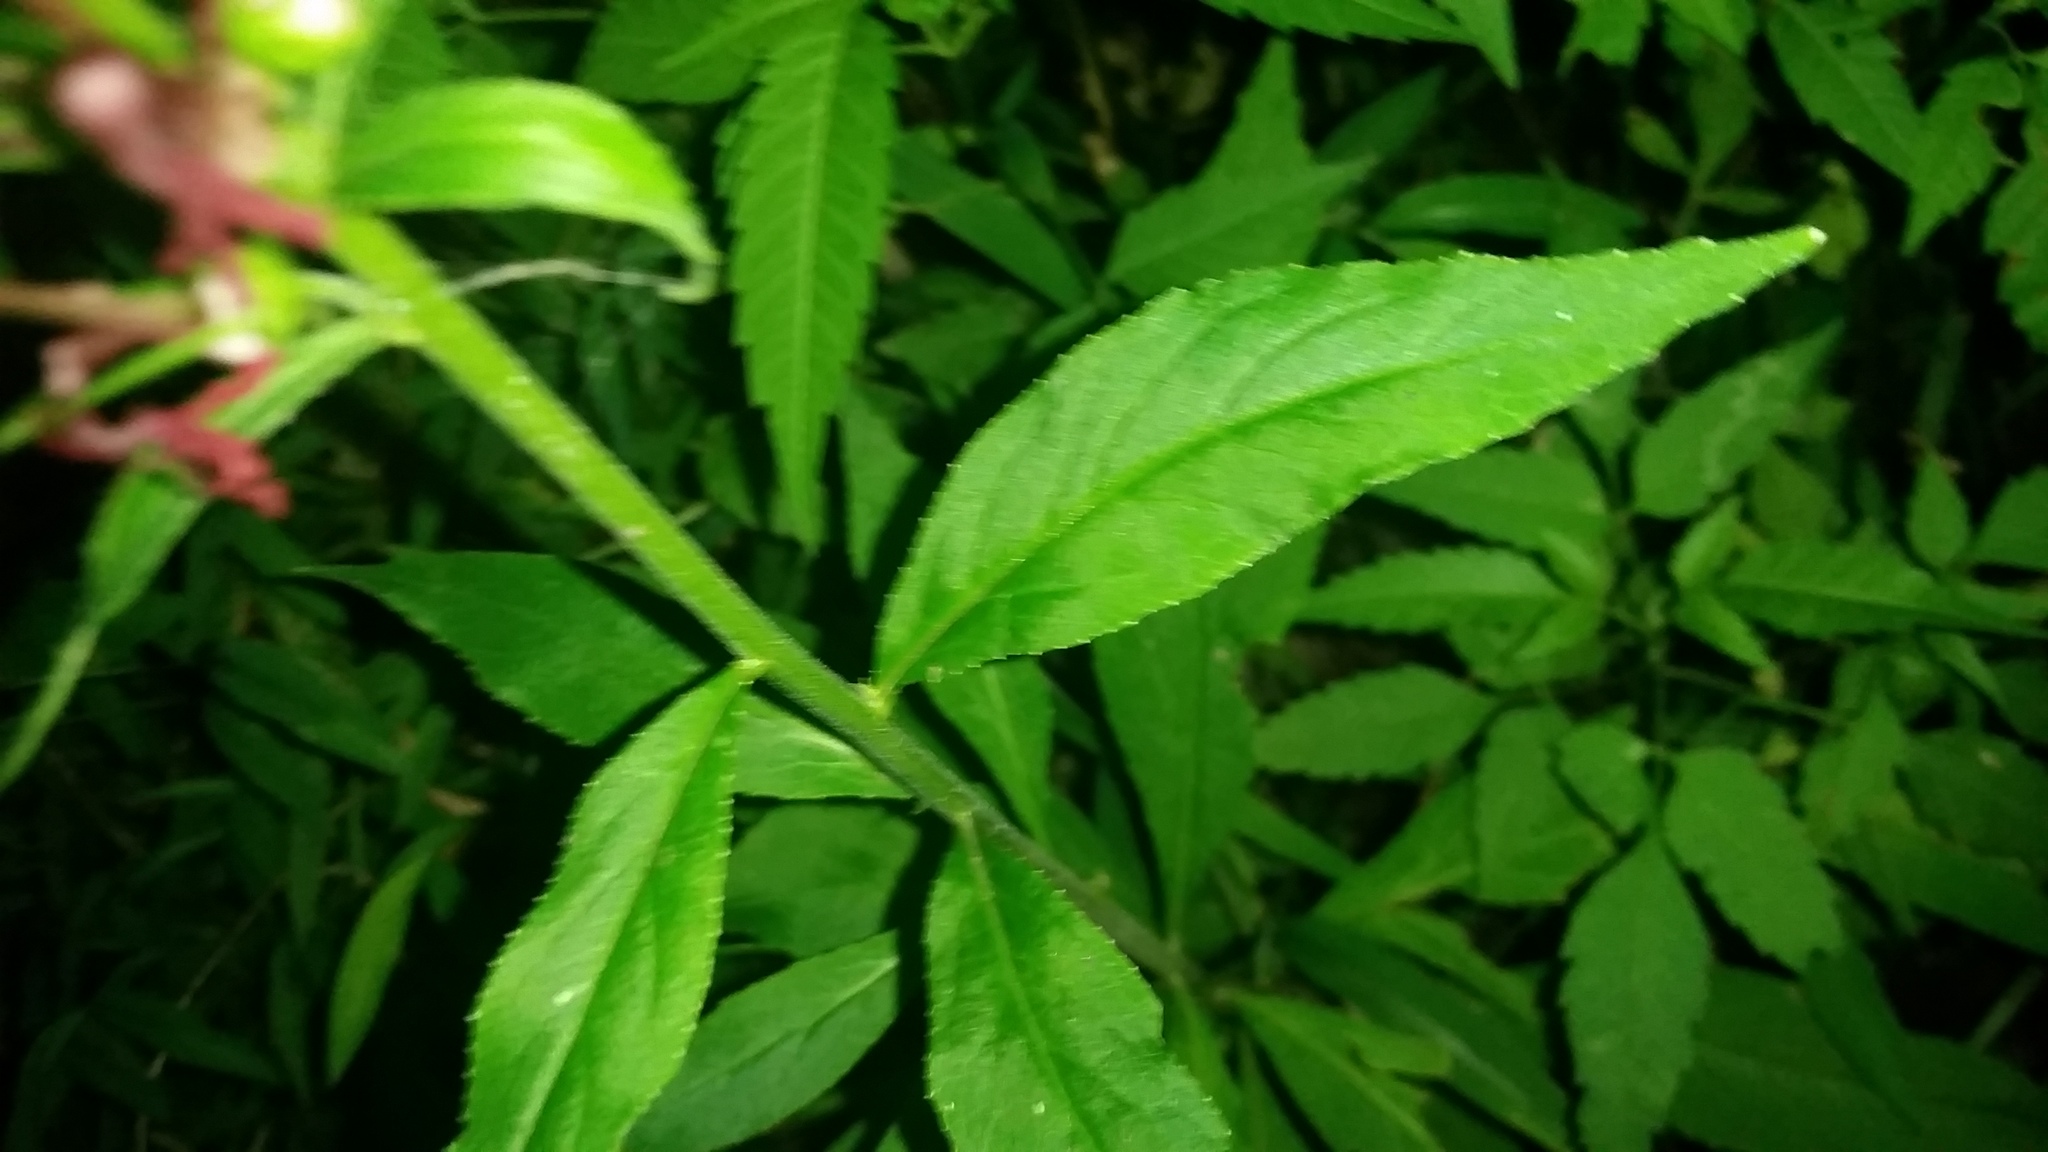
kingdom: Plantae
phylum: Tracheophyta
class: Magnoliopsida
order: Asterales
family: Campanulaceae
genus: Lobelia
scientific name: Lobelia cardinalis
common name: Cardinal flower
